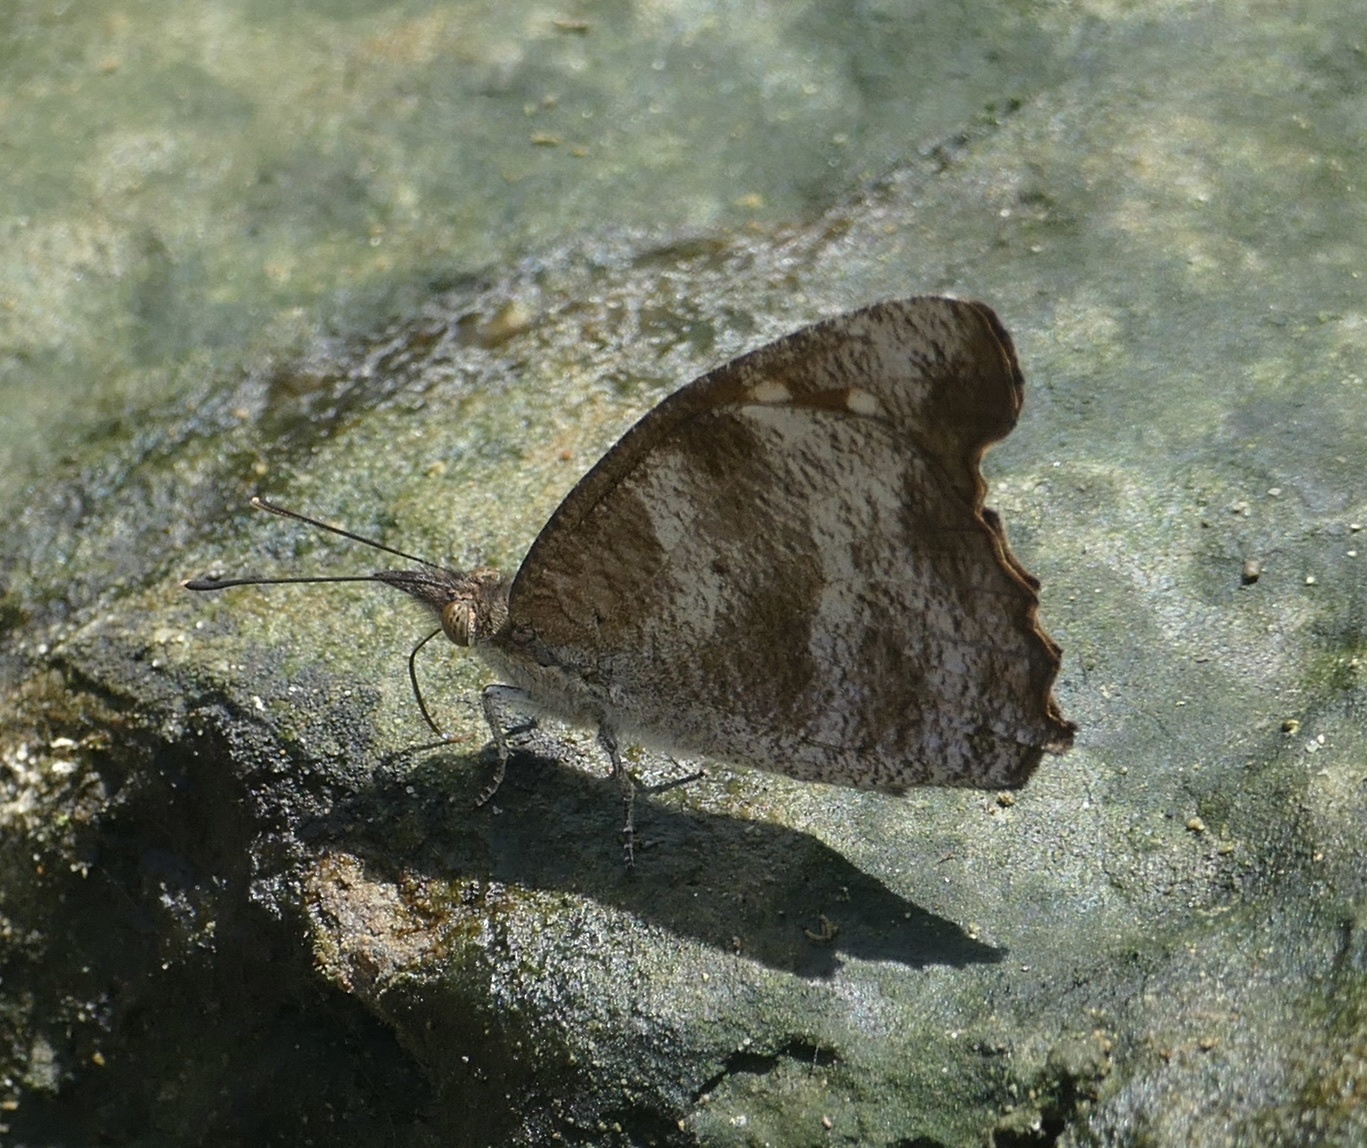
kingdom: Animalia
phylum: Arthropoda
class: Insecta
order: Lepidoptera
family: Nymphalidae
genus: Libythea
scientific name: Libythea geoffroy
